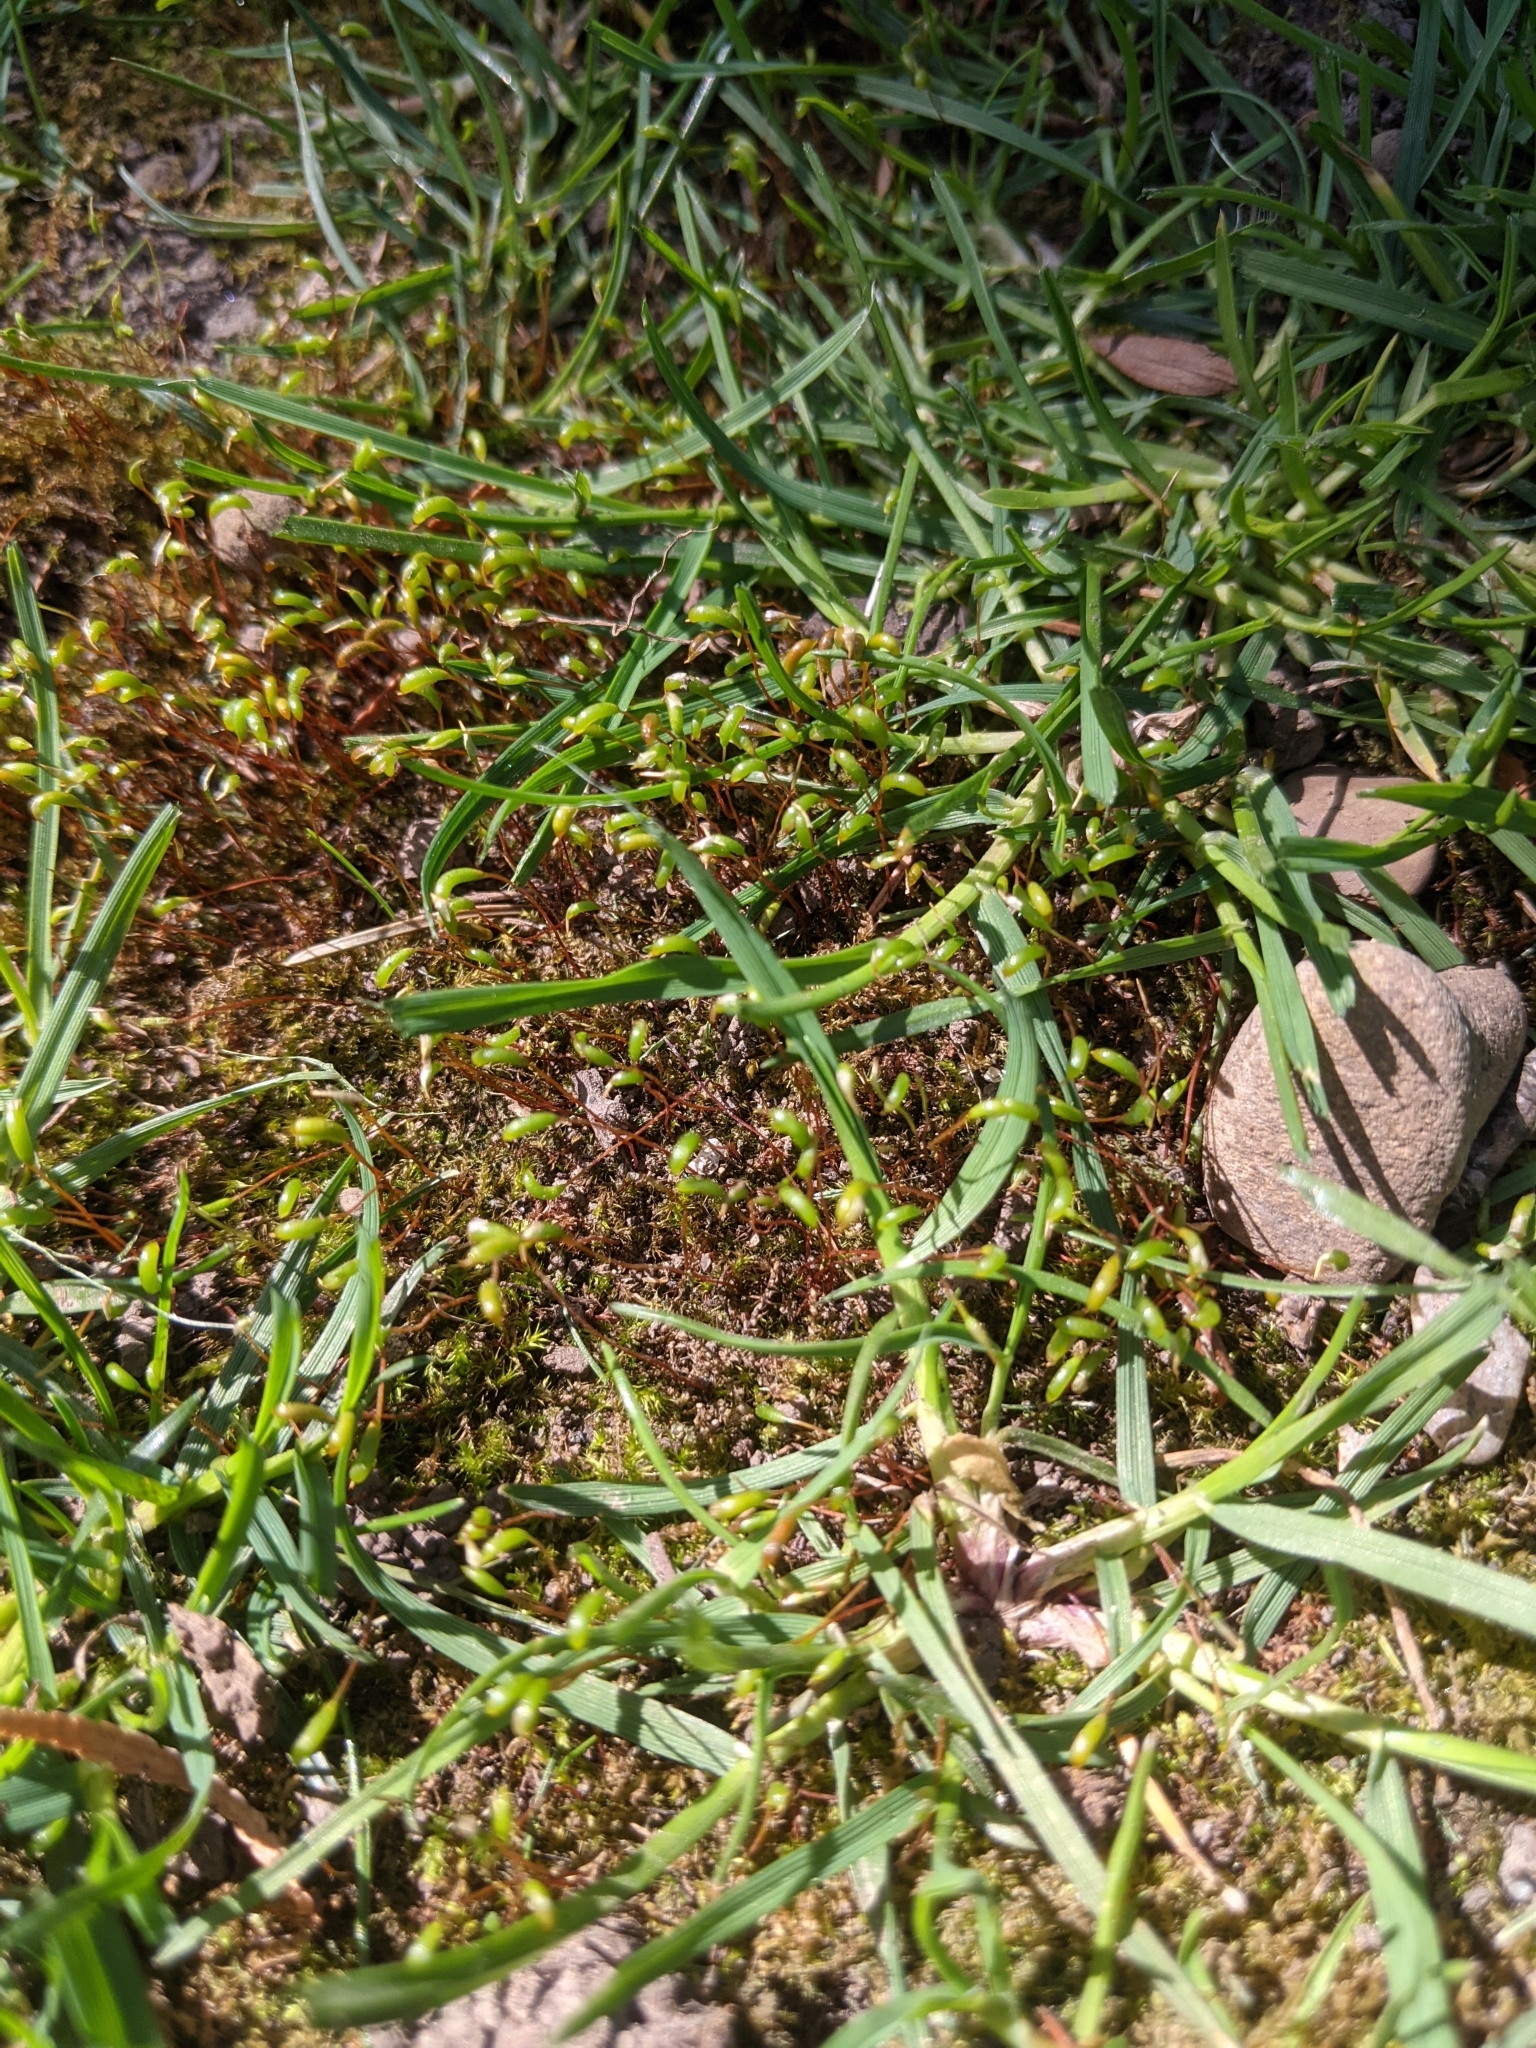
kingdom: Plantae
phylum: Bryophyta
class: Bryopsida
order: Funariales
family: Funariaceae
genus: Funaria
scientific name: Funaria hygrometrica
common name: Common cord moss
